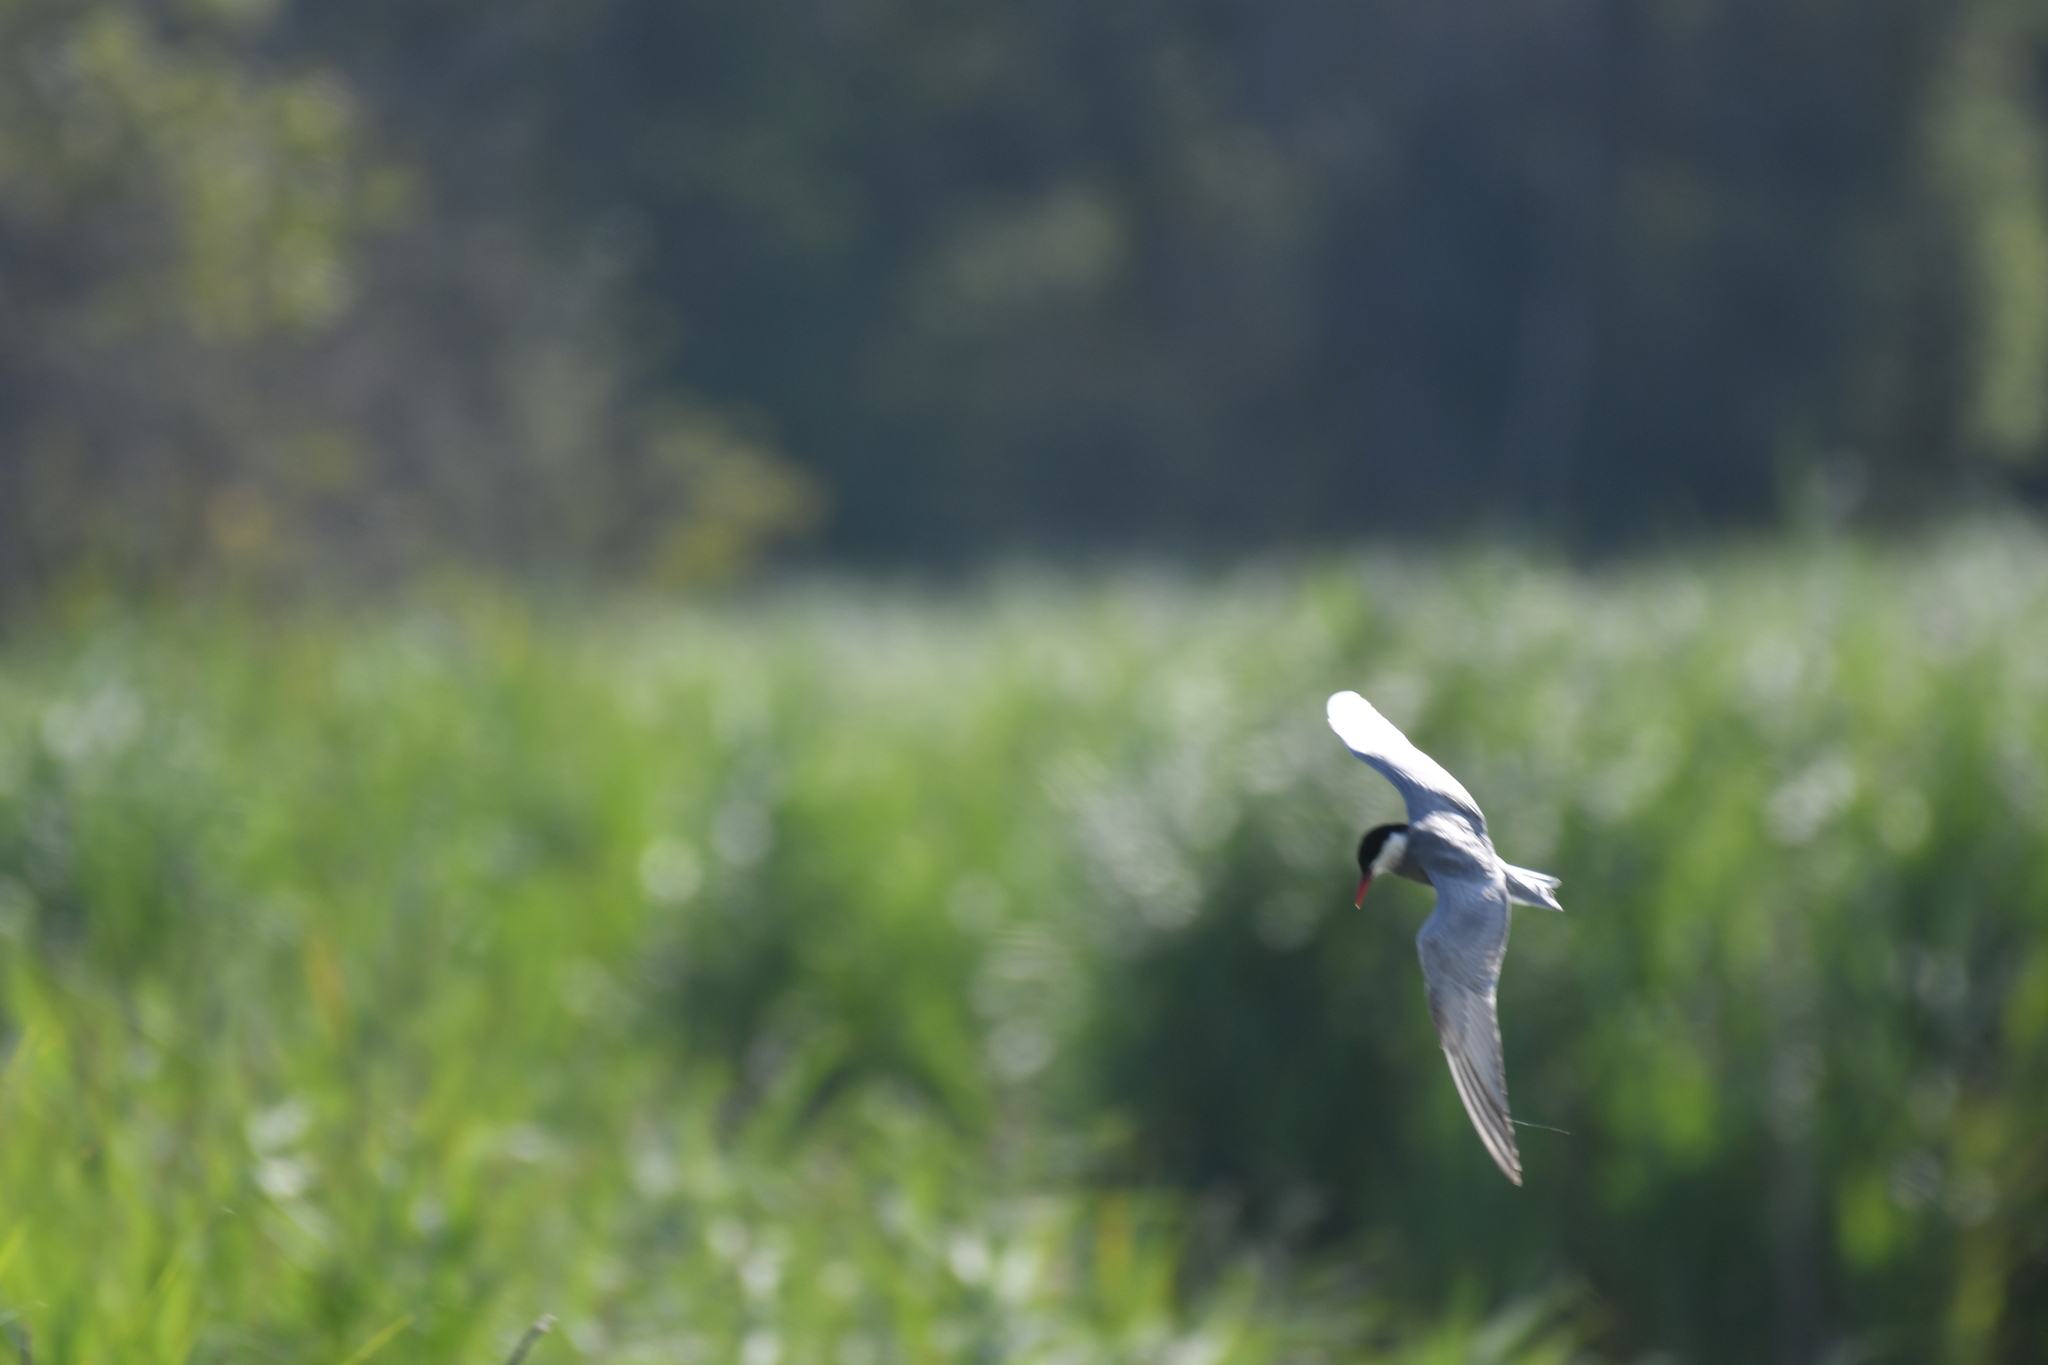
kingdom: Animalia
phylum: Chordata
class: Aves
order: Charadriiformes
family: Laridae
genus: Chlidonias
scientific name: Chlidonias hybrida
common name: Whiskered tern
